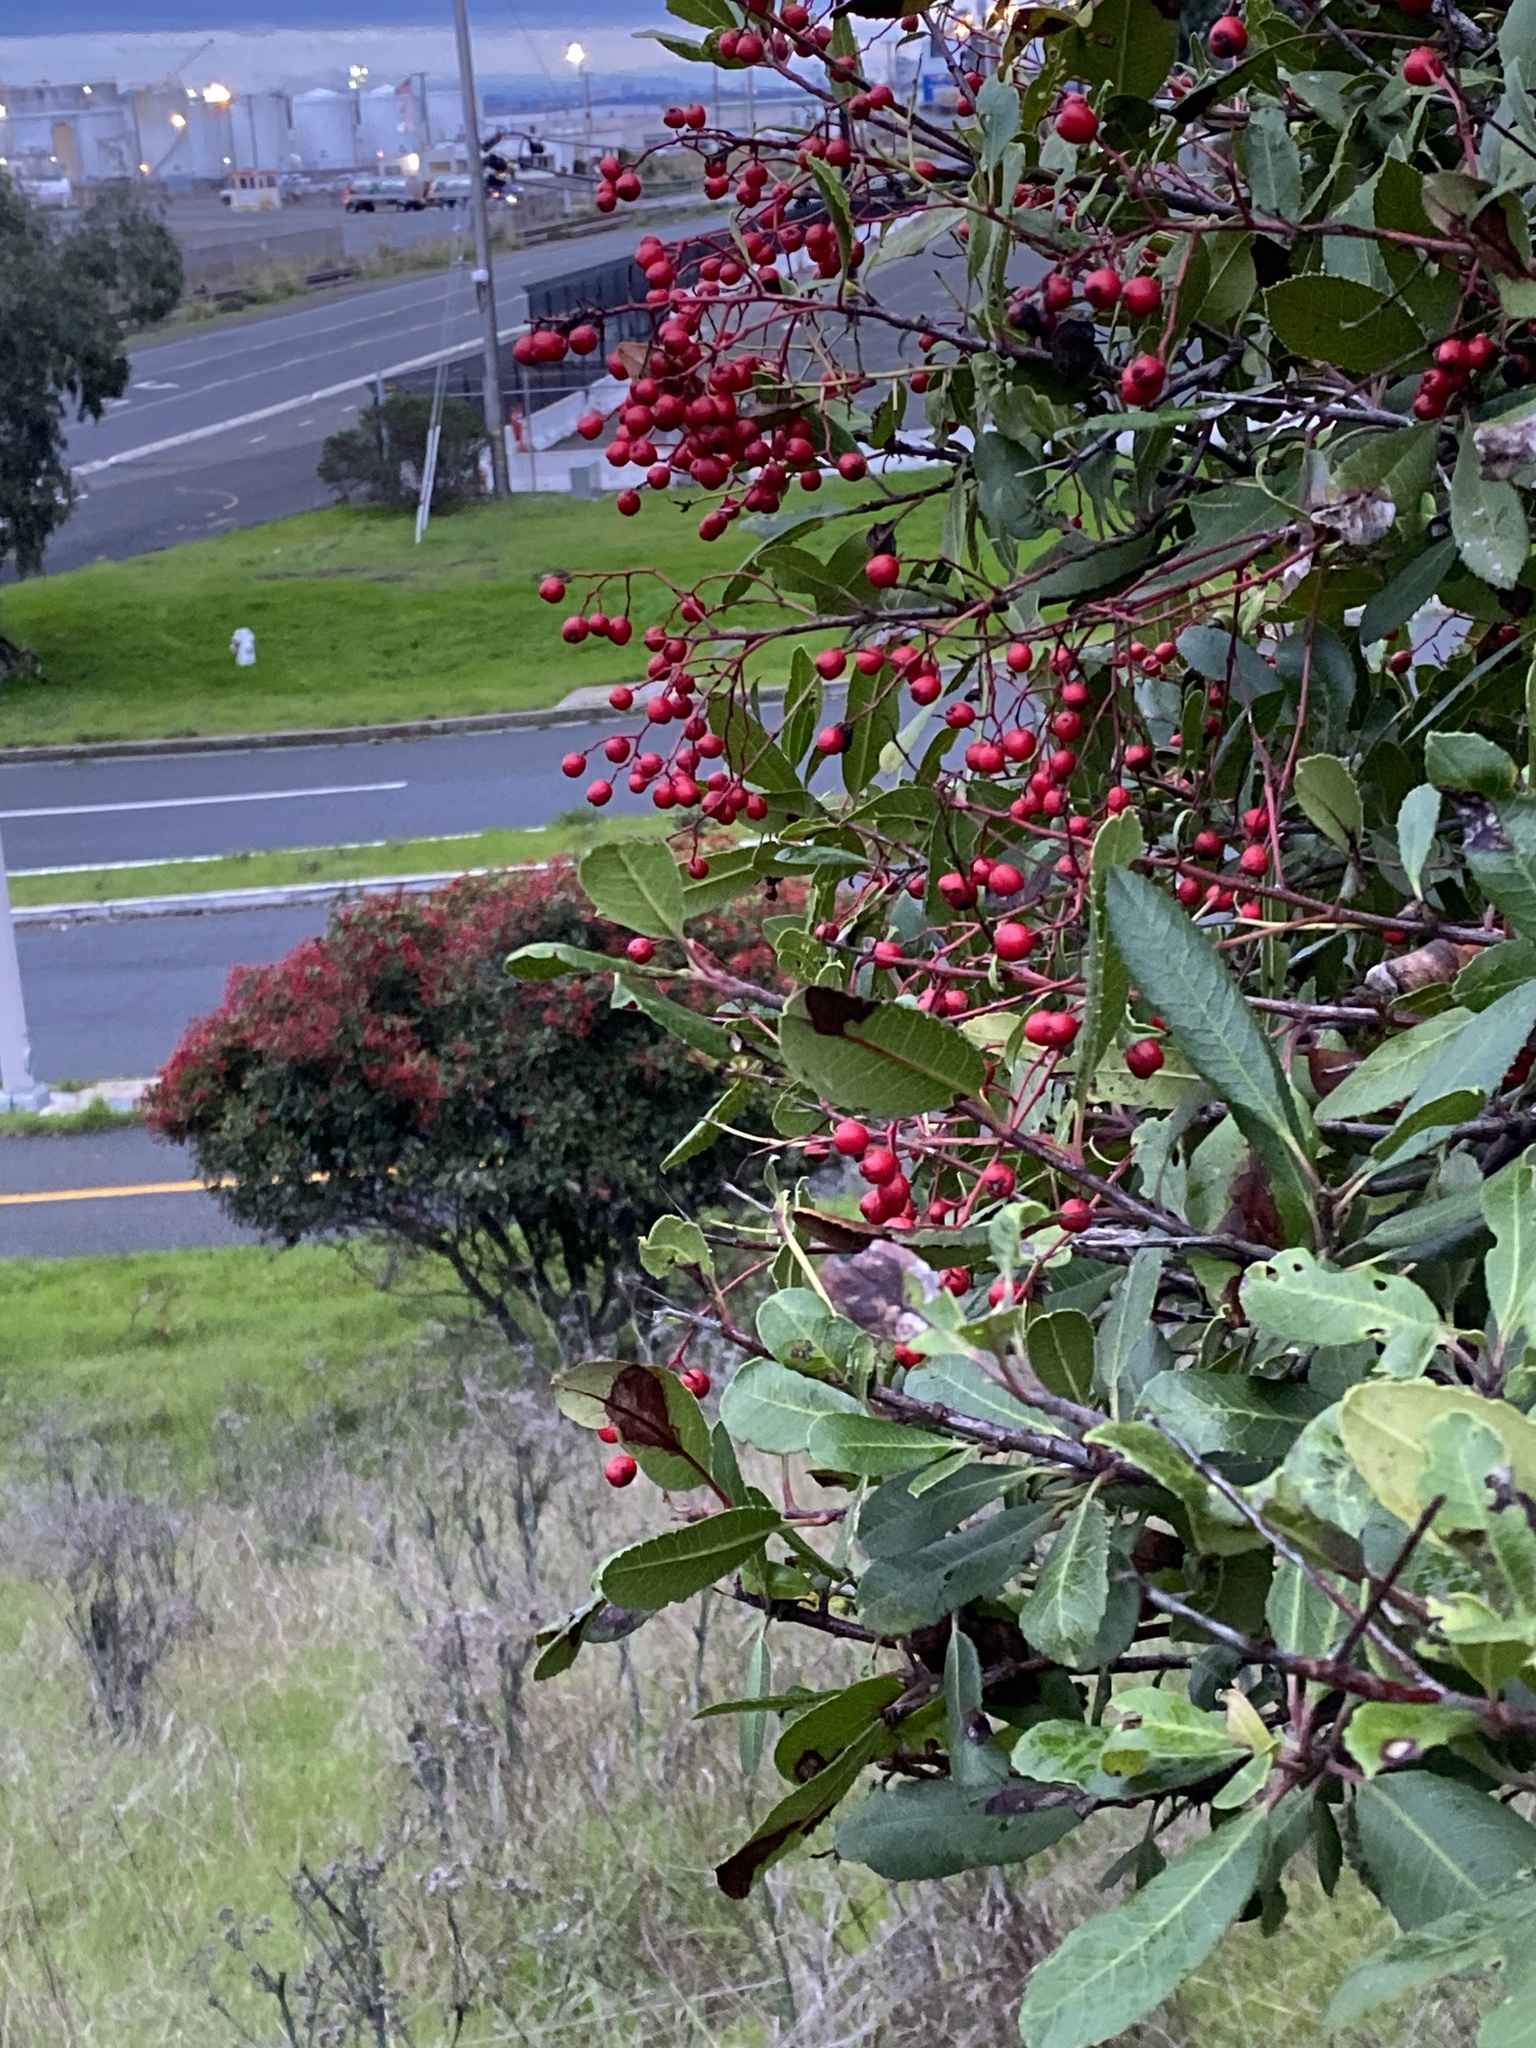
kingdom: Plantae
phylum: Tracheophyta
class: Magnoliopsida
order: Rosales
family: Rosaceae
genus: Heteromeles
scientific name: Heteromeles arbutifolia
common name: California-holly
